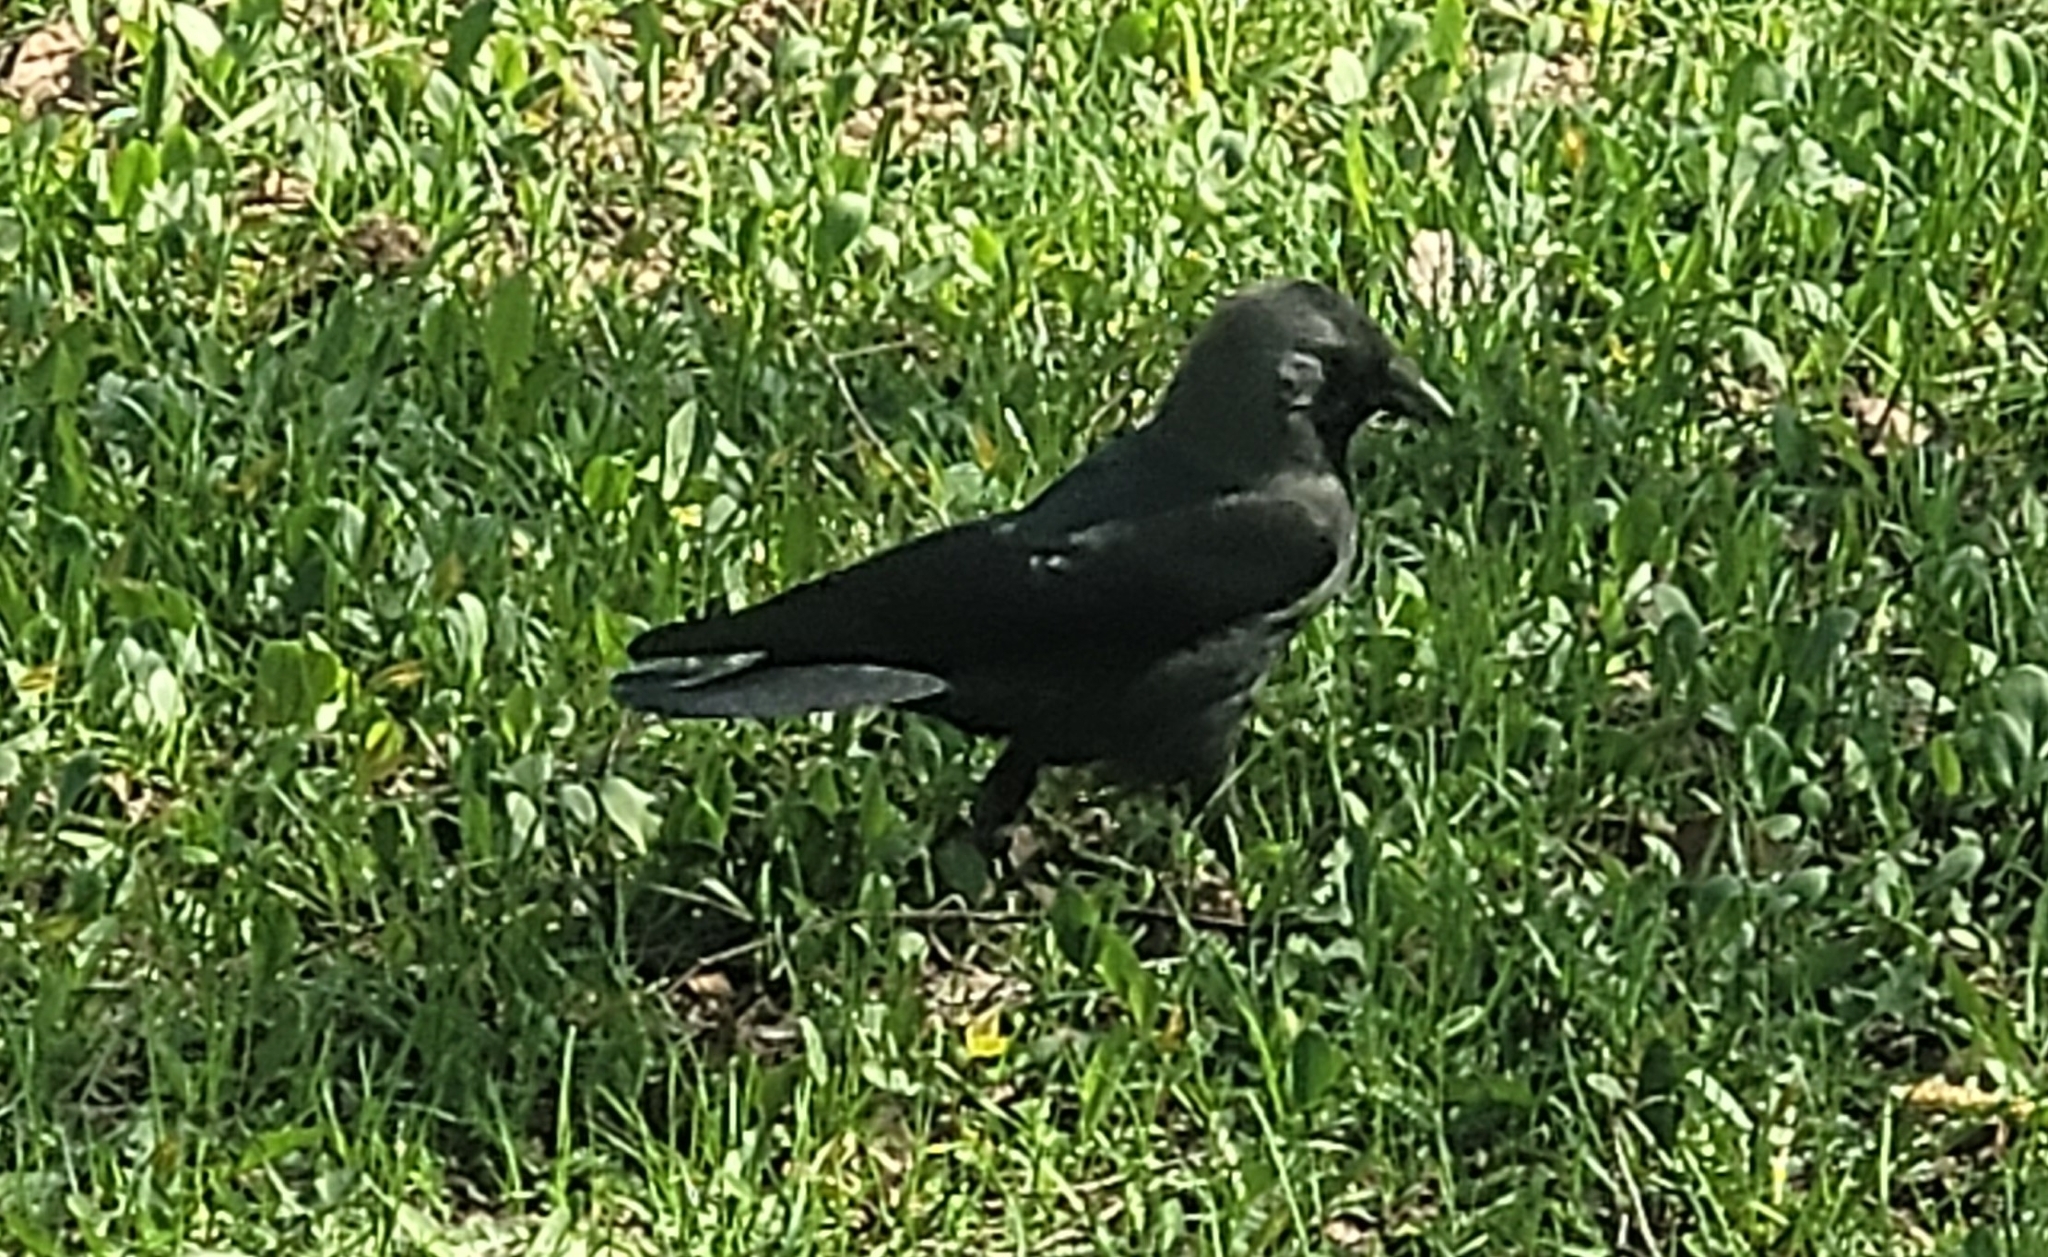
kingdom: Animalia
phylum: Chordata
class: Aves
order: Passeriformes
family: Corvidae
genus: Coloeus
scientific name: Coloeus monedula
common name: Western jackdaw
